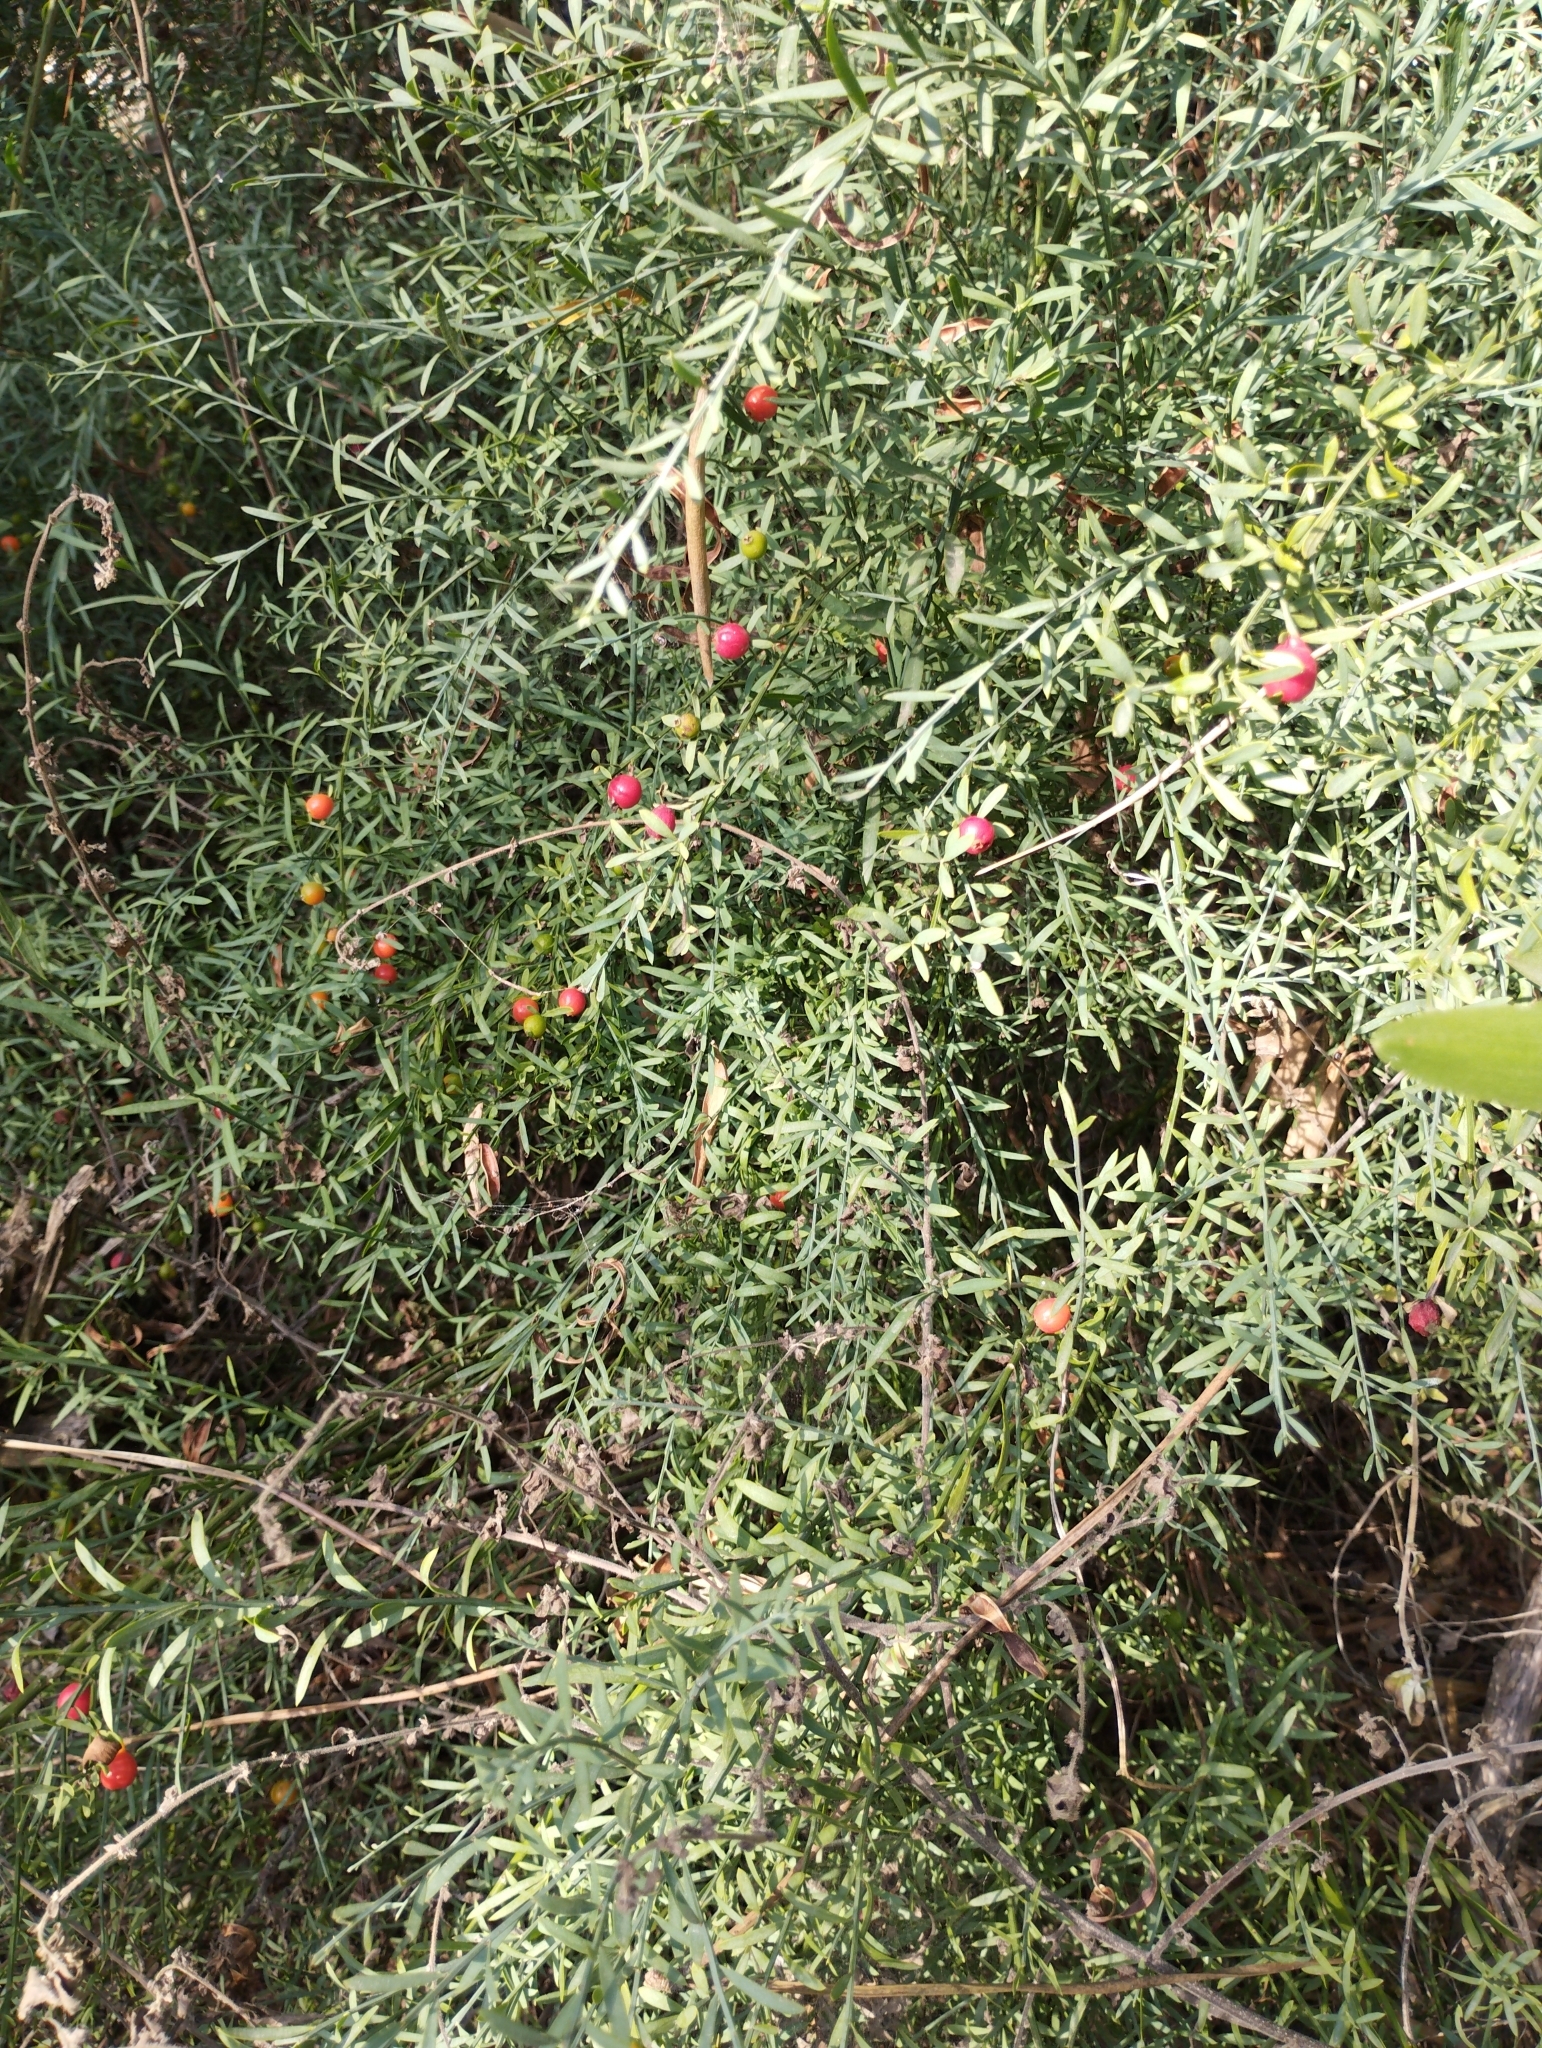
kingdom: Plantae
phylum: Tracheophyta
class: Magnoliopsida
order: Santalales
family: Santalaceae
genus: Osyris
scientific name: Osyris alba
